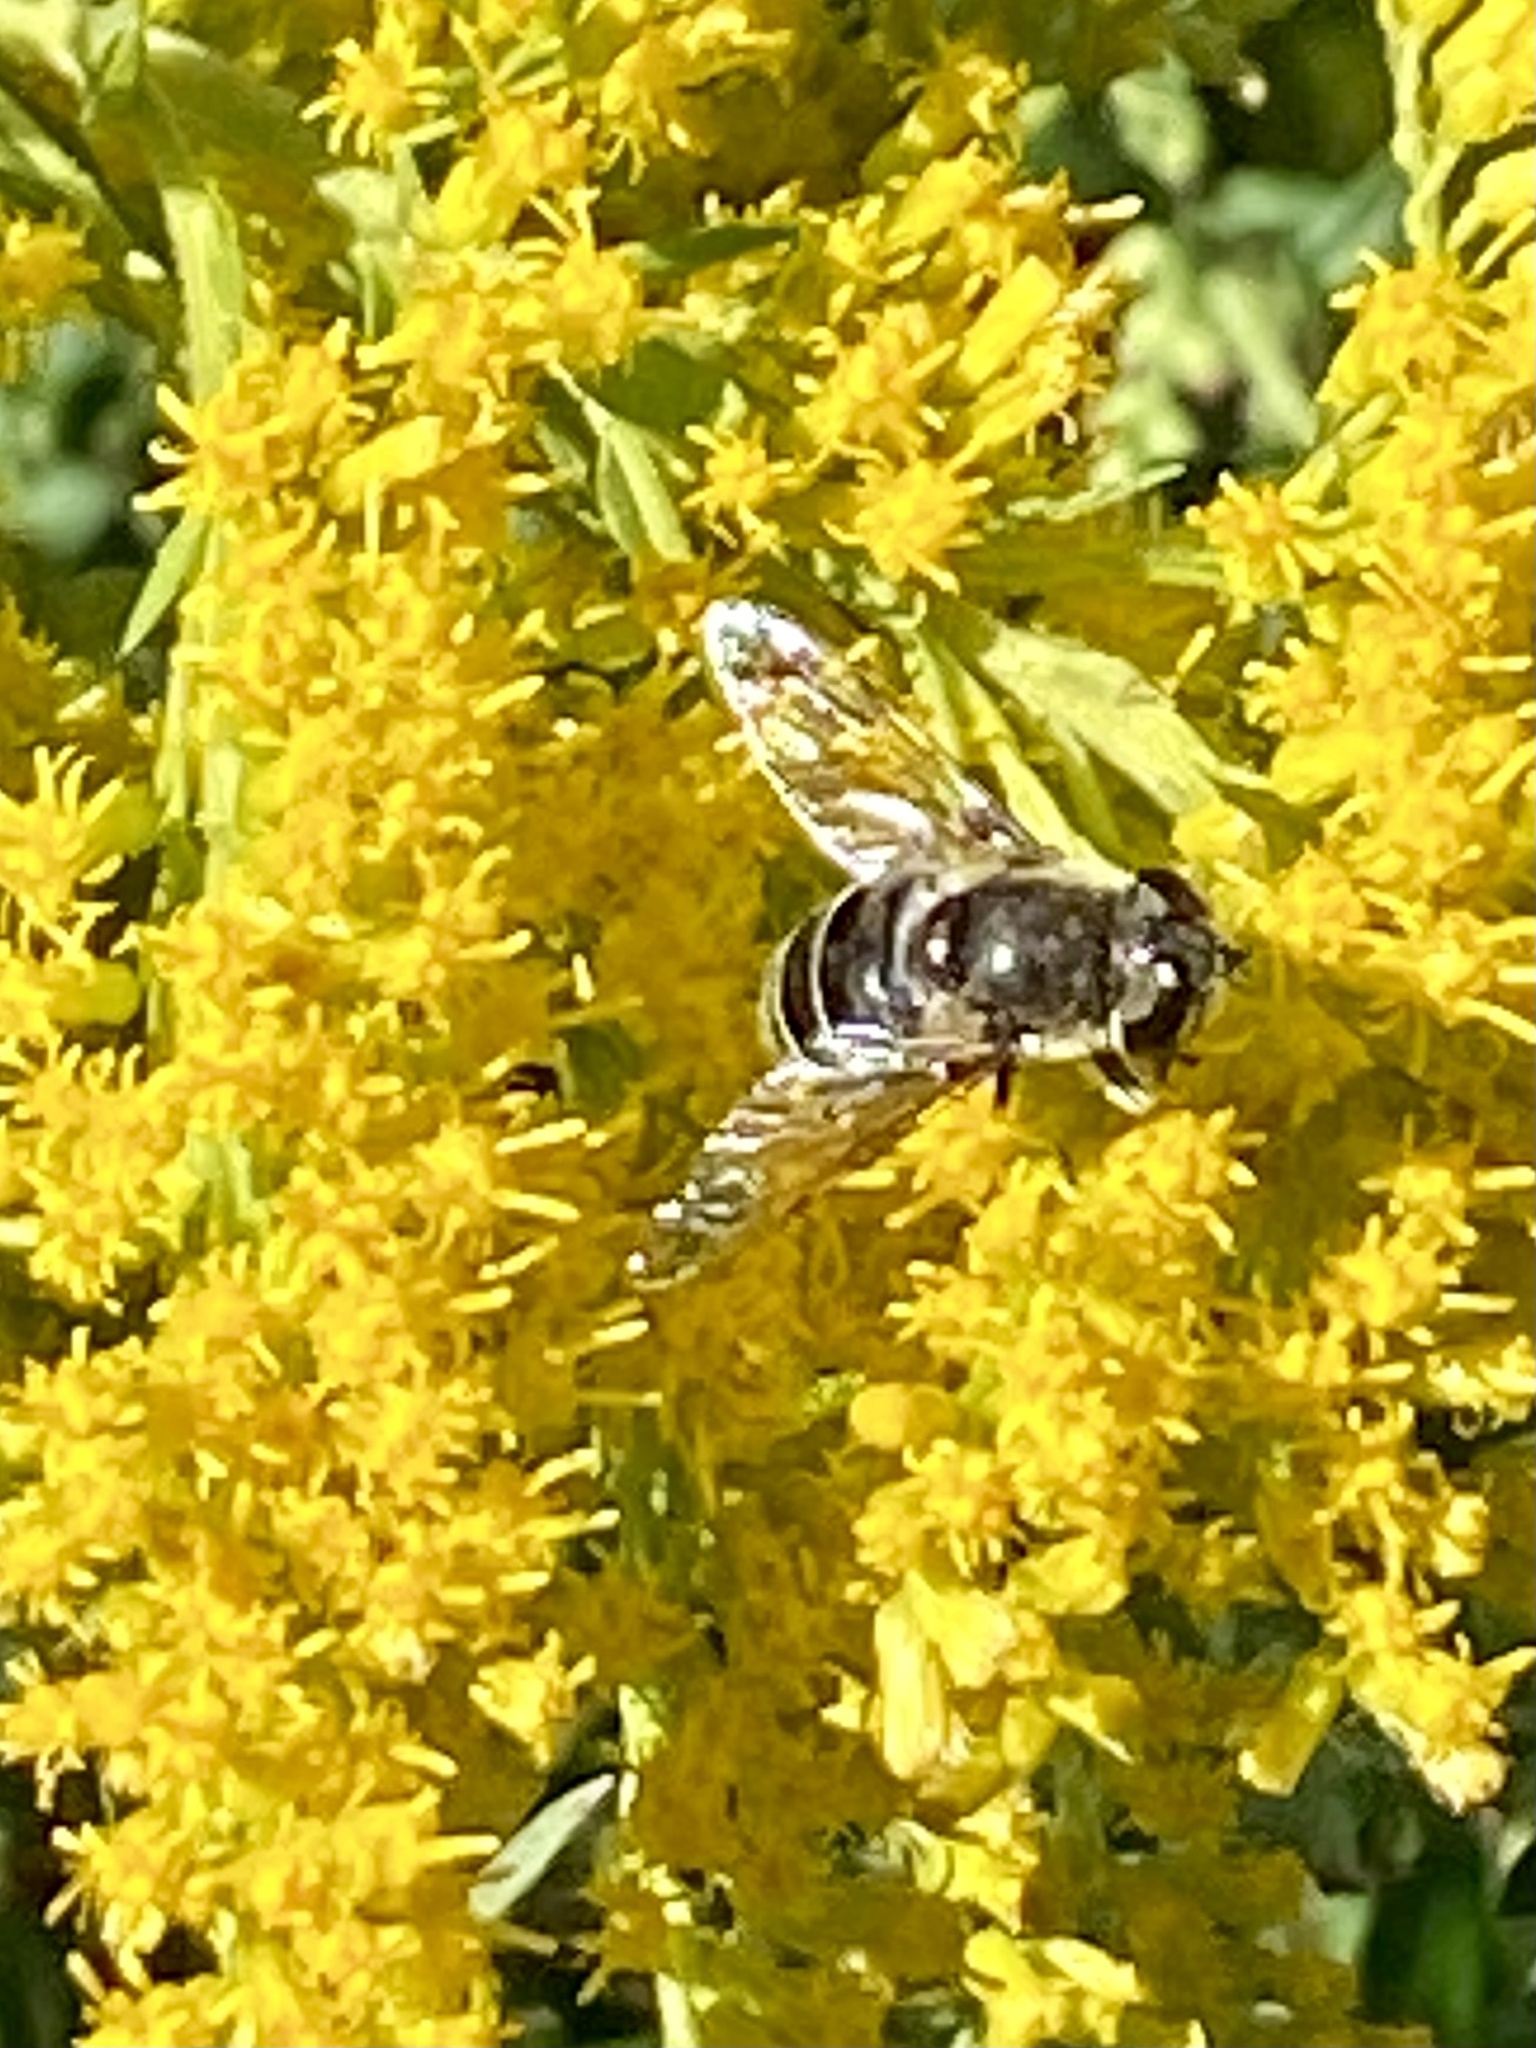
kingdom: Animalia
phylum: Arthropoda
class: Insecta
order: Diptera
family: Syrphidae
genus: Eristalis
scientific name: Eristalis dimidiata
